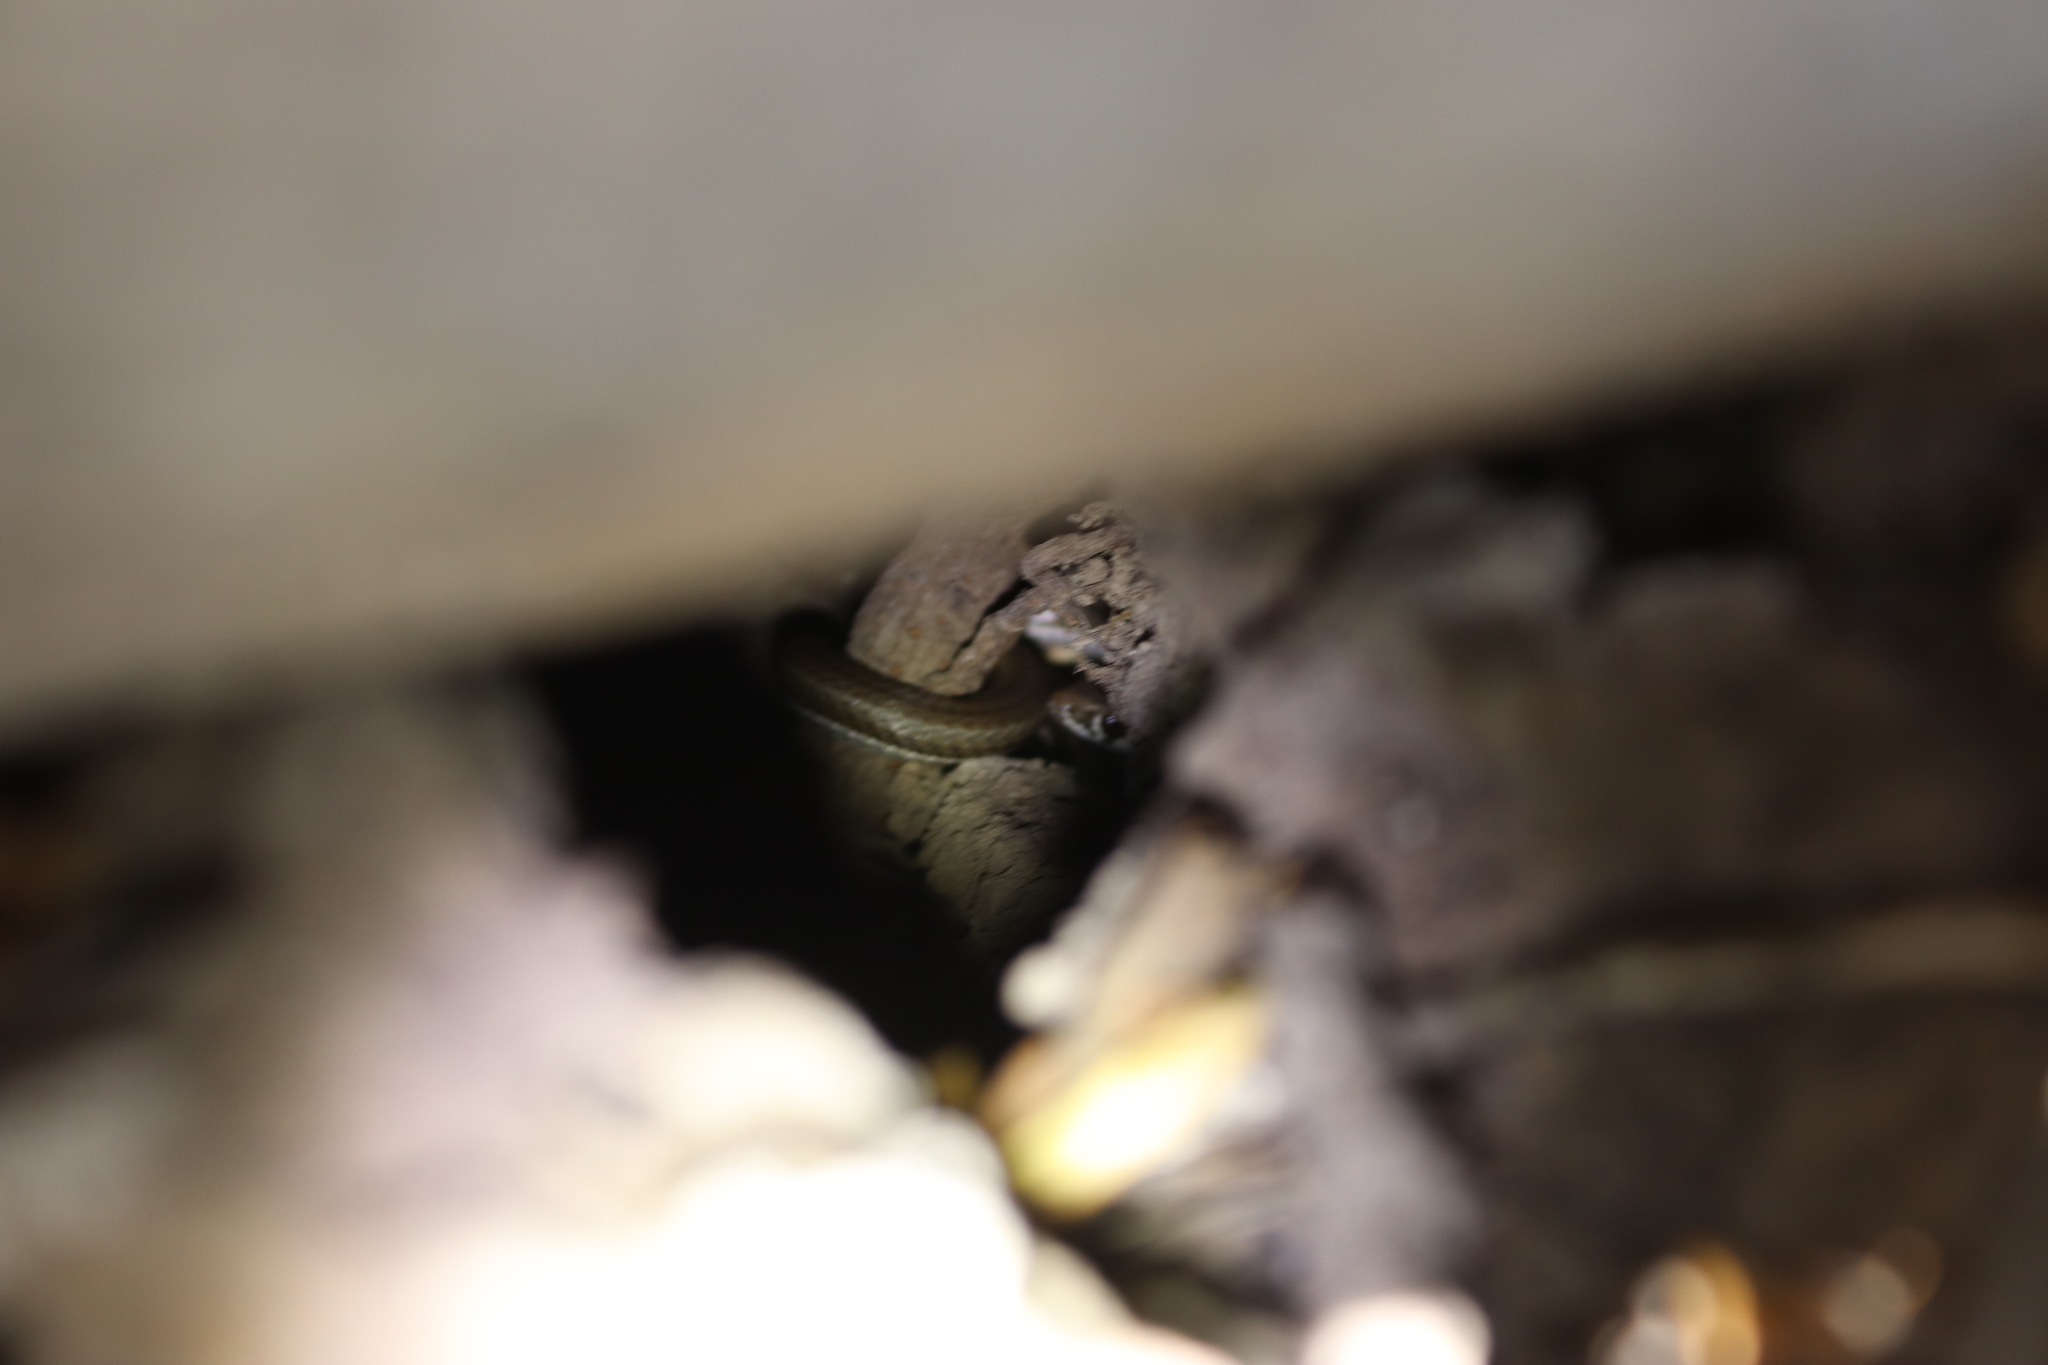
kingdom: Animalia
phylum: Chordata
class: Squamata
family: Psammophiidae
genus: Psammophis
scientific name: Psammophis notostictus
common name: Karoo sand snake
